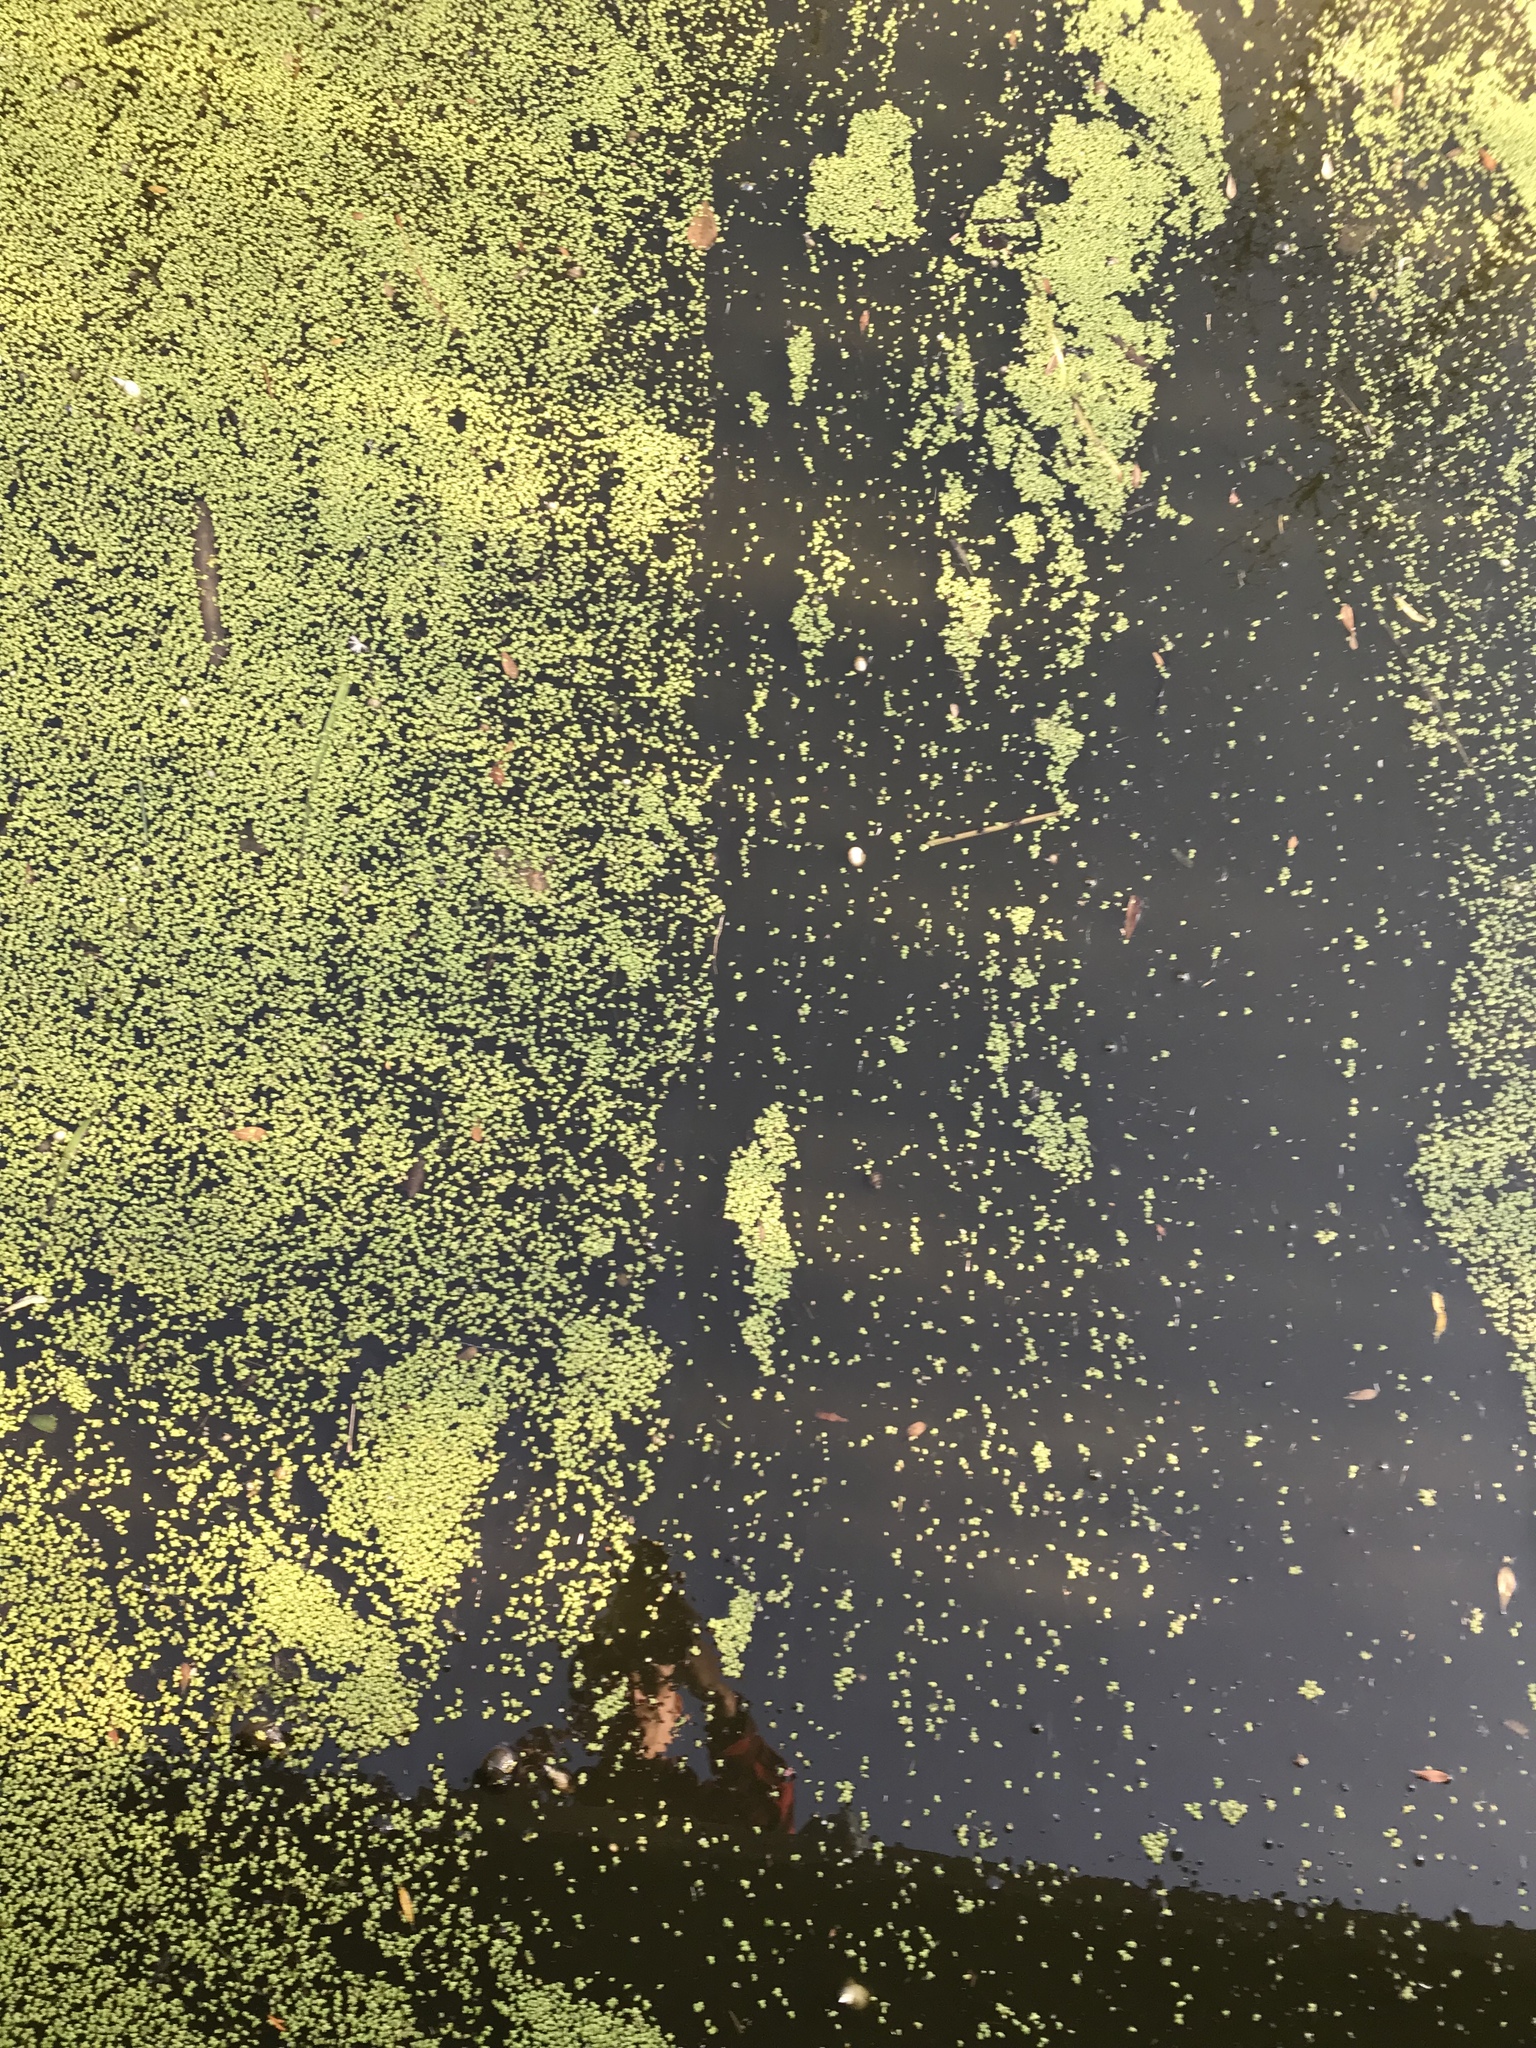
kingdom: Plantae
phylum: Tracheophyta
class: Liliopsida
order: Alismatales
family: Araceae
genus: Lemna
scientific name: Lemna minor
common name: Common duckweed
